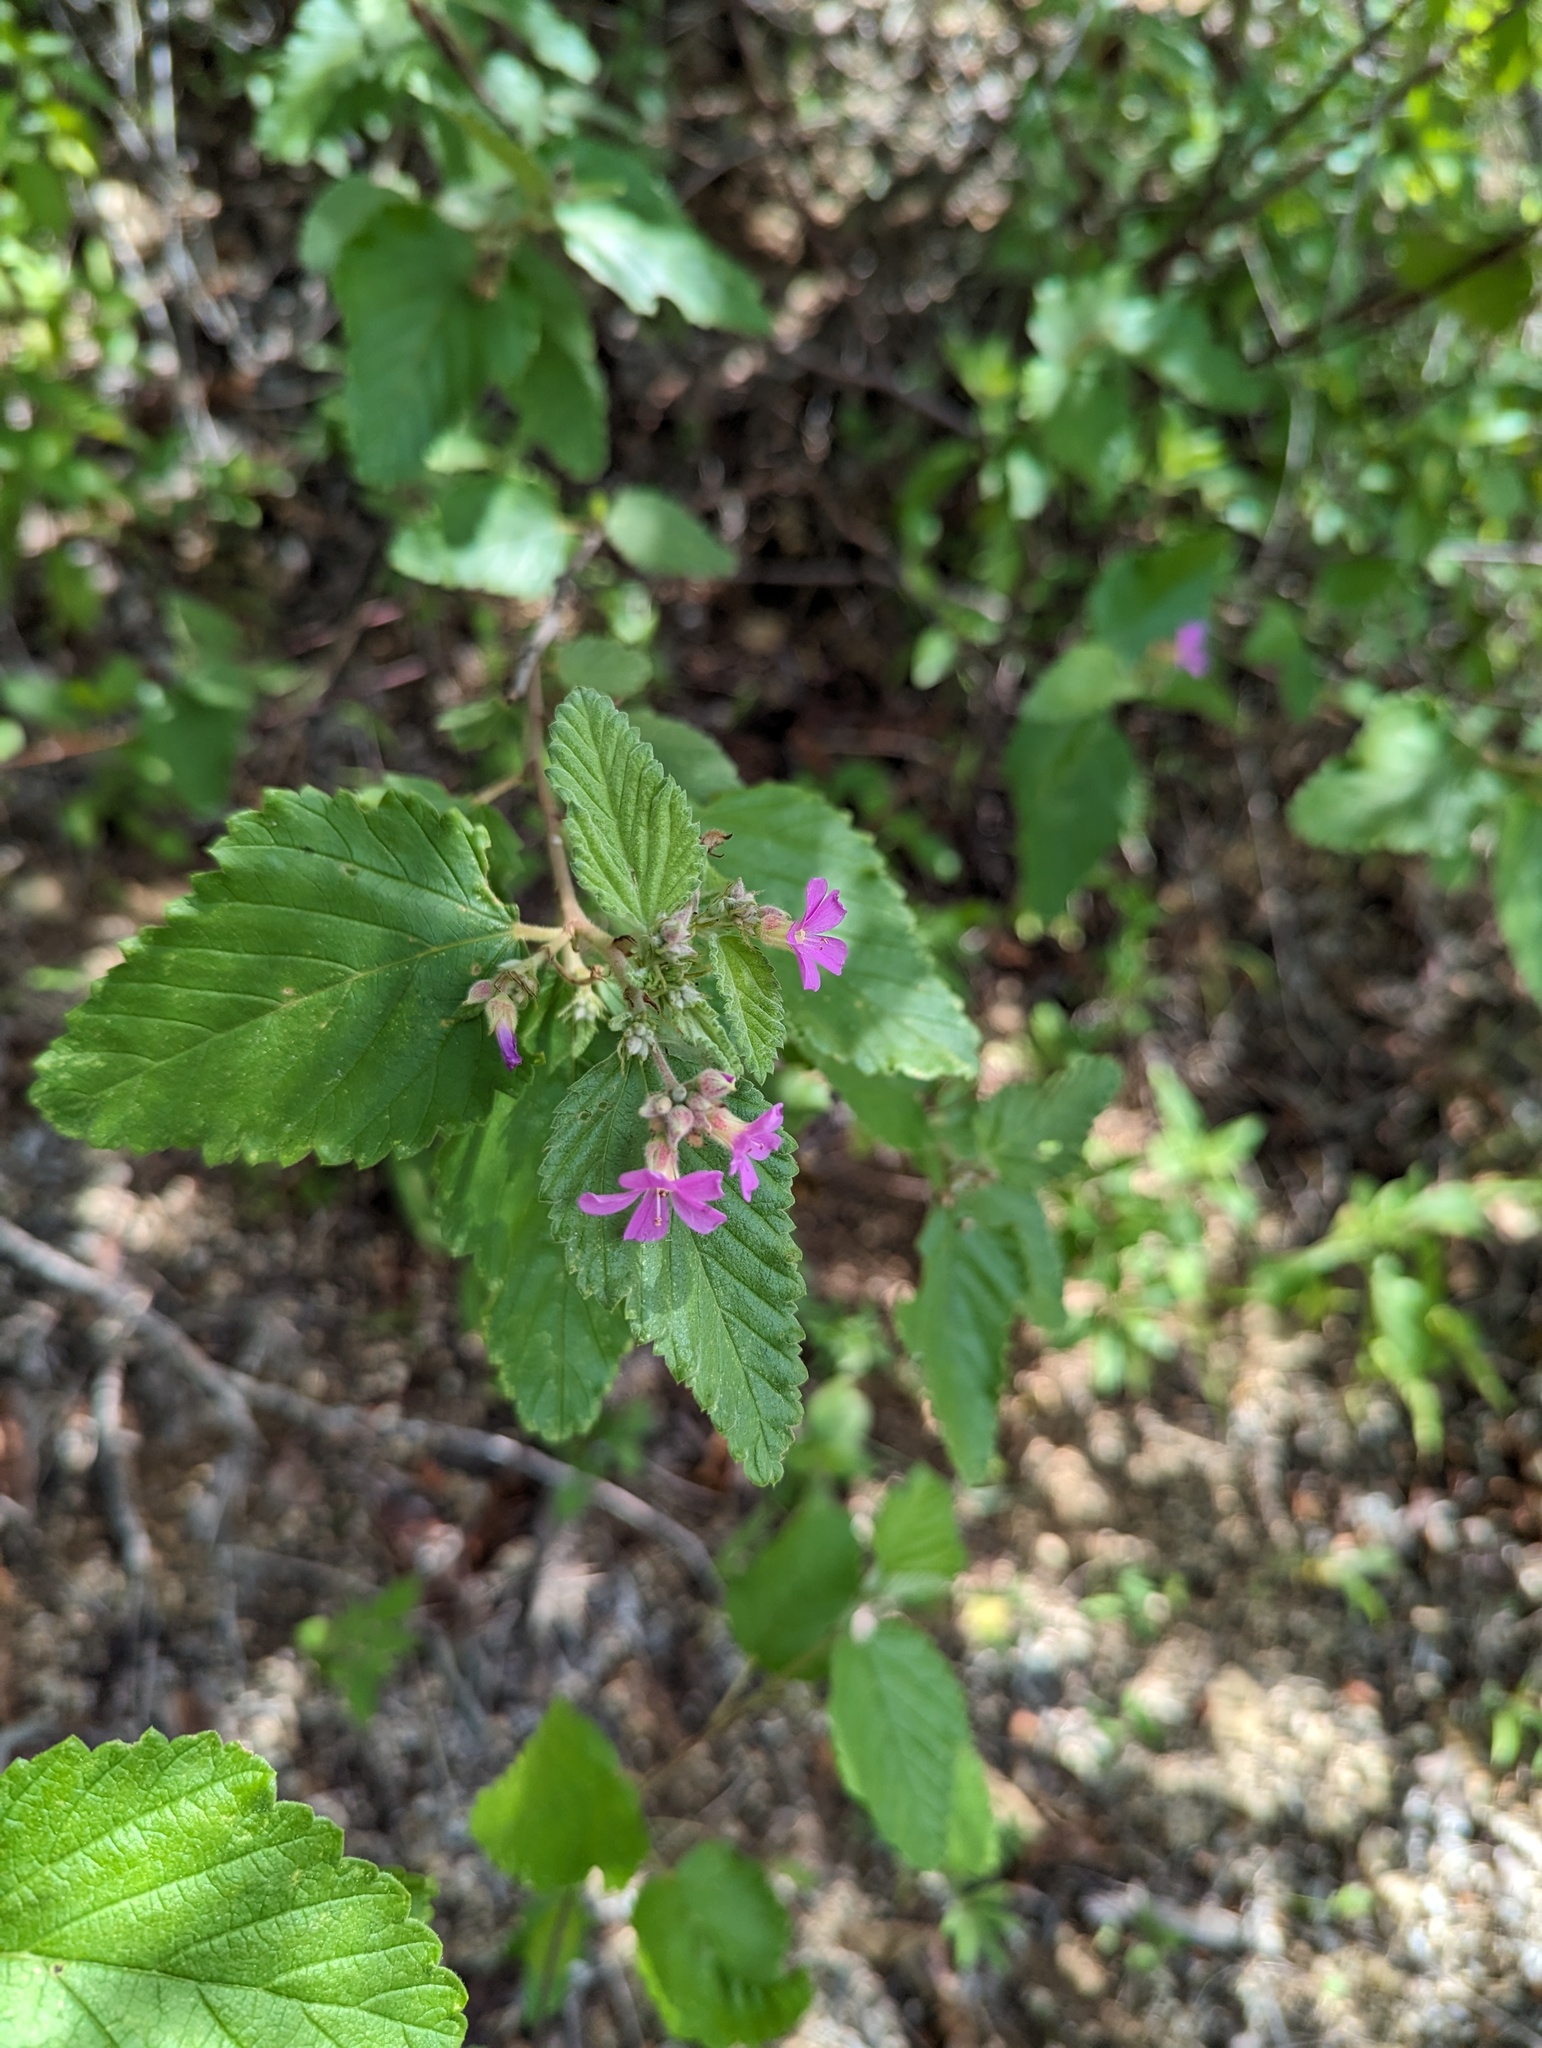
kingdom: Plantae
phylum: Tracheophyta
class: Magnoliopsida
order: Malvales
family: Malvaceae
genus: Melochia
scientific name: Melochia tomentosa
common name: Black torch
